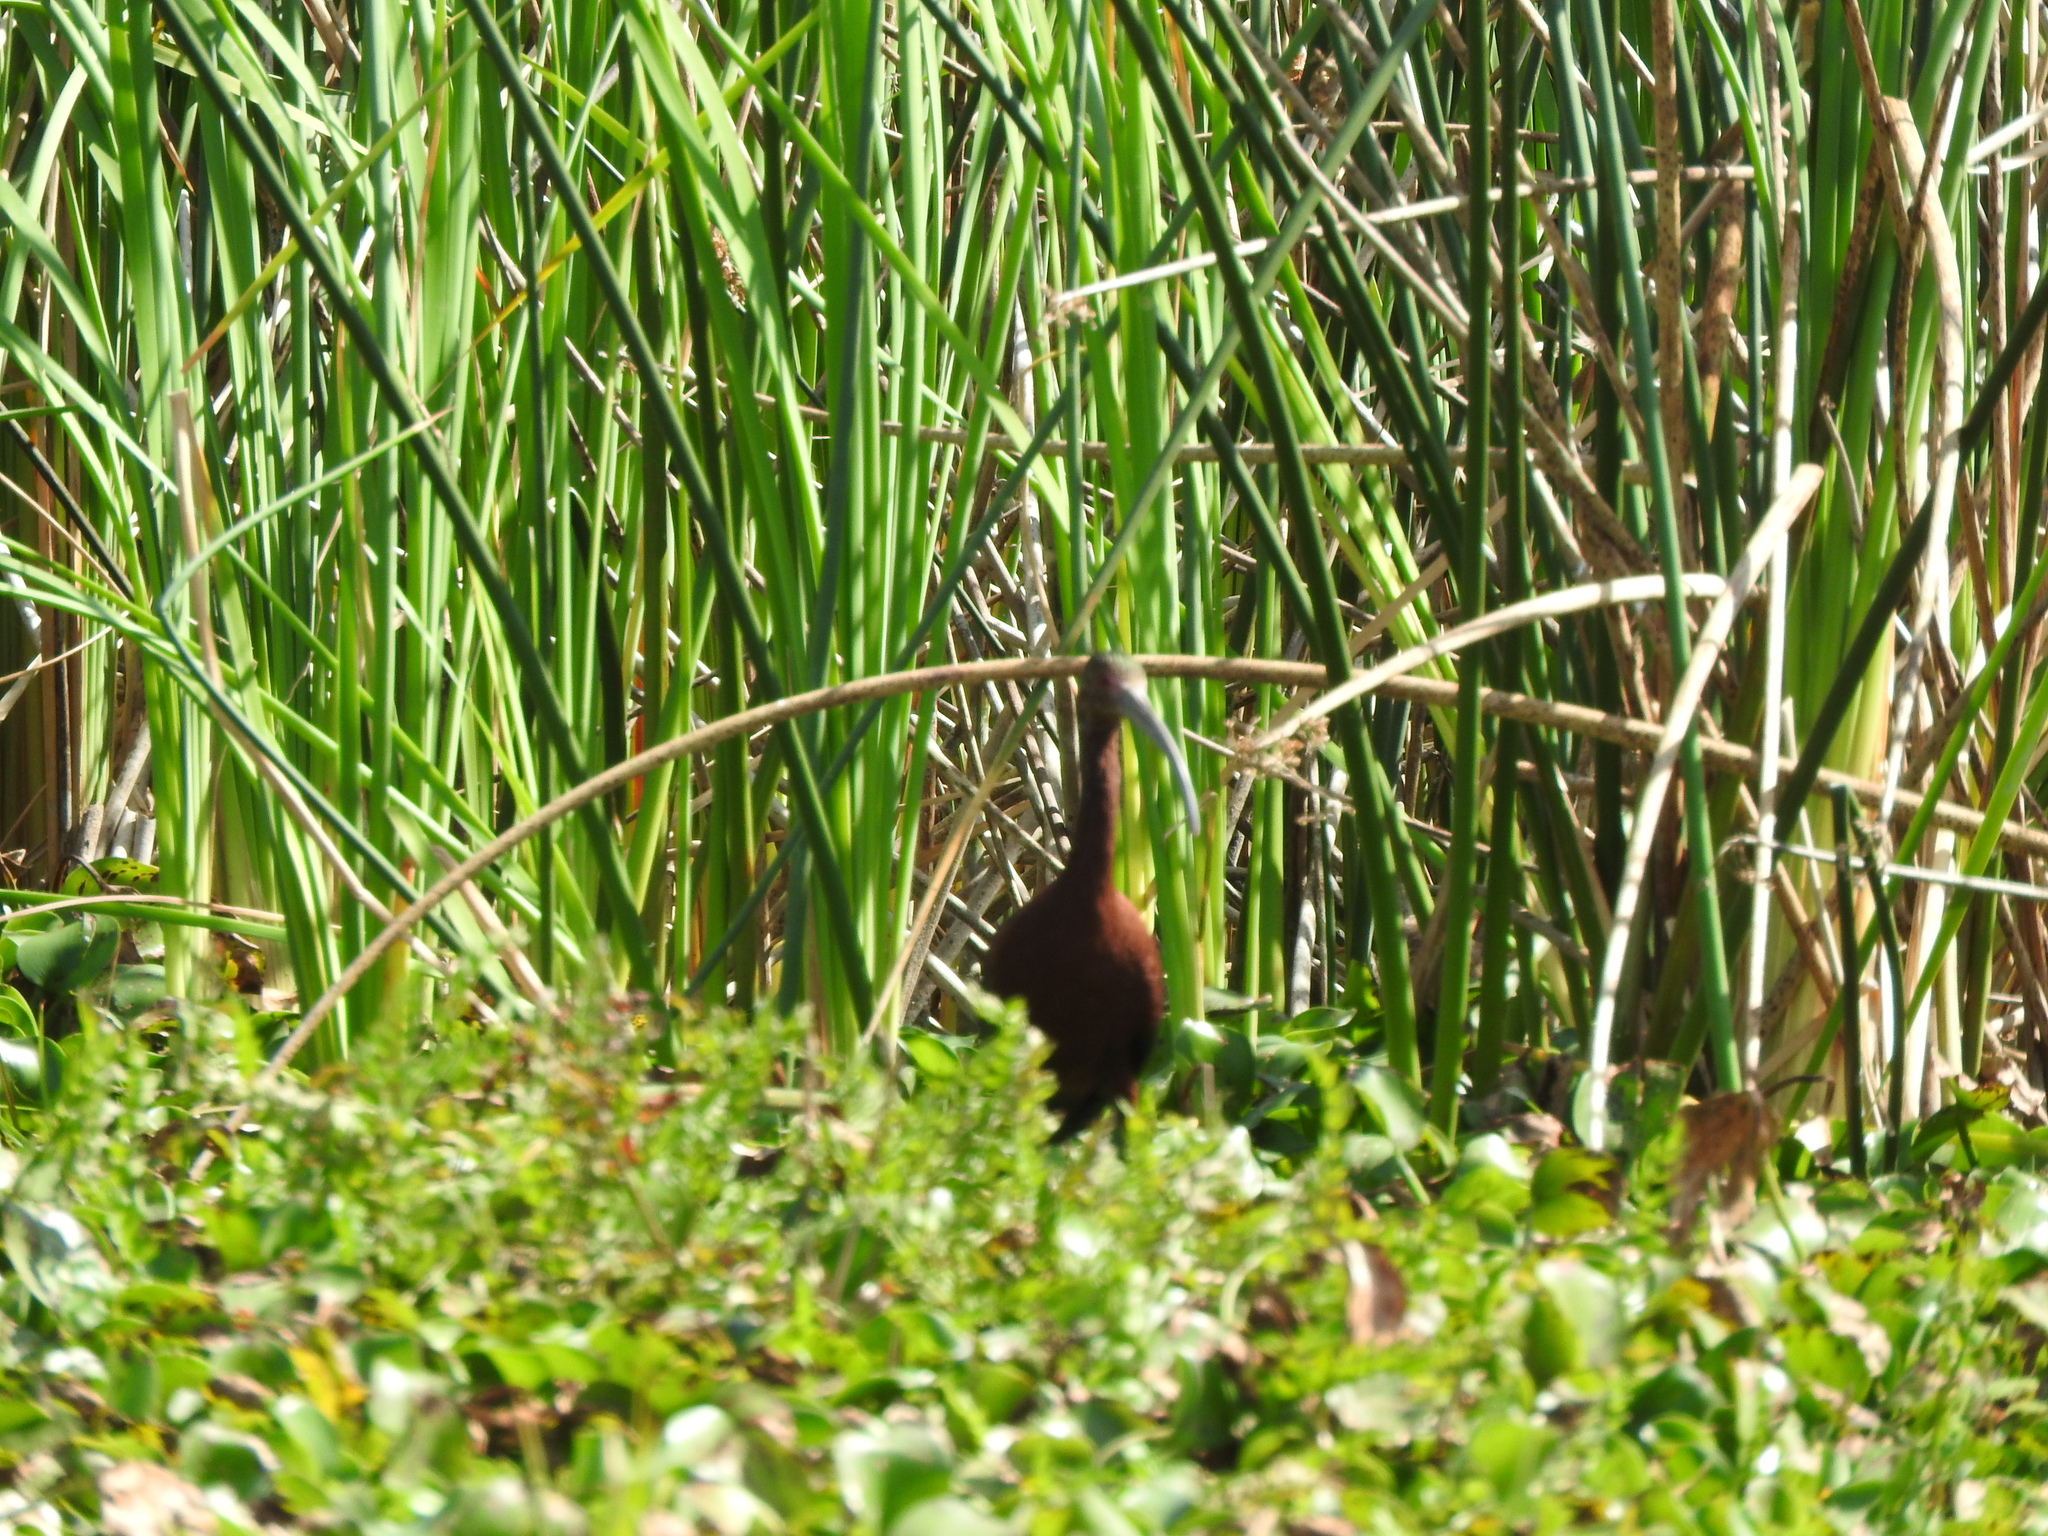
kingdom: Animalia
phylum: Chordata
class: Aves
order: Pelecaniformes
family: Threskiornithidae
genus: Plegadis
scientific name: Plegadis chihi
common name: White-faced ibis
